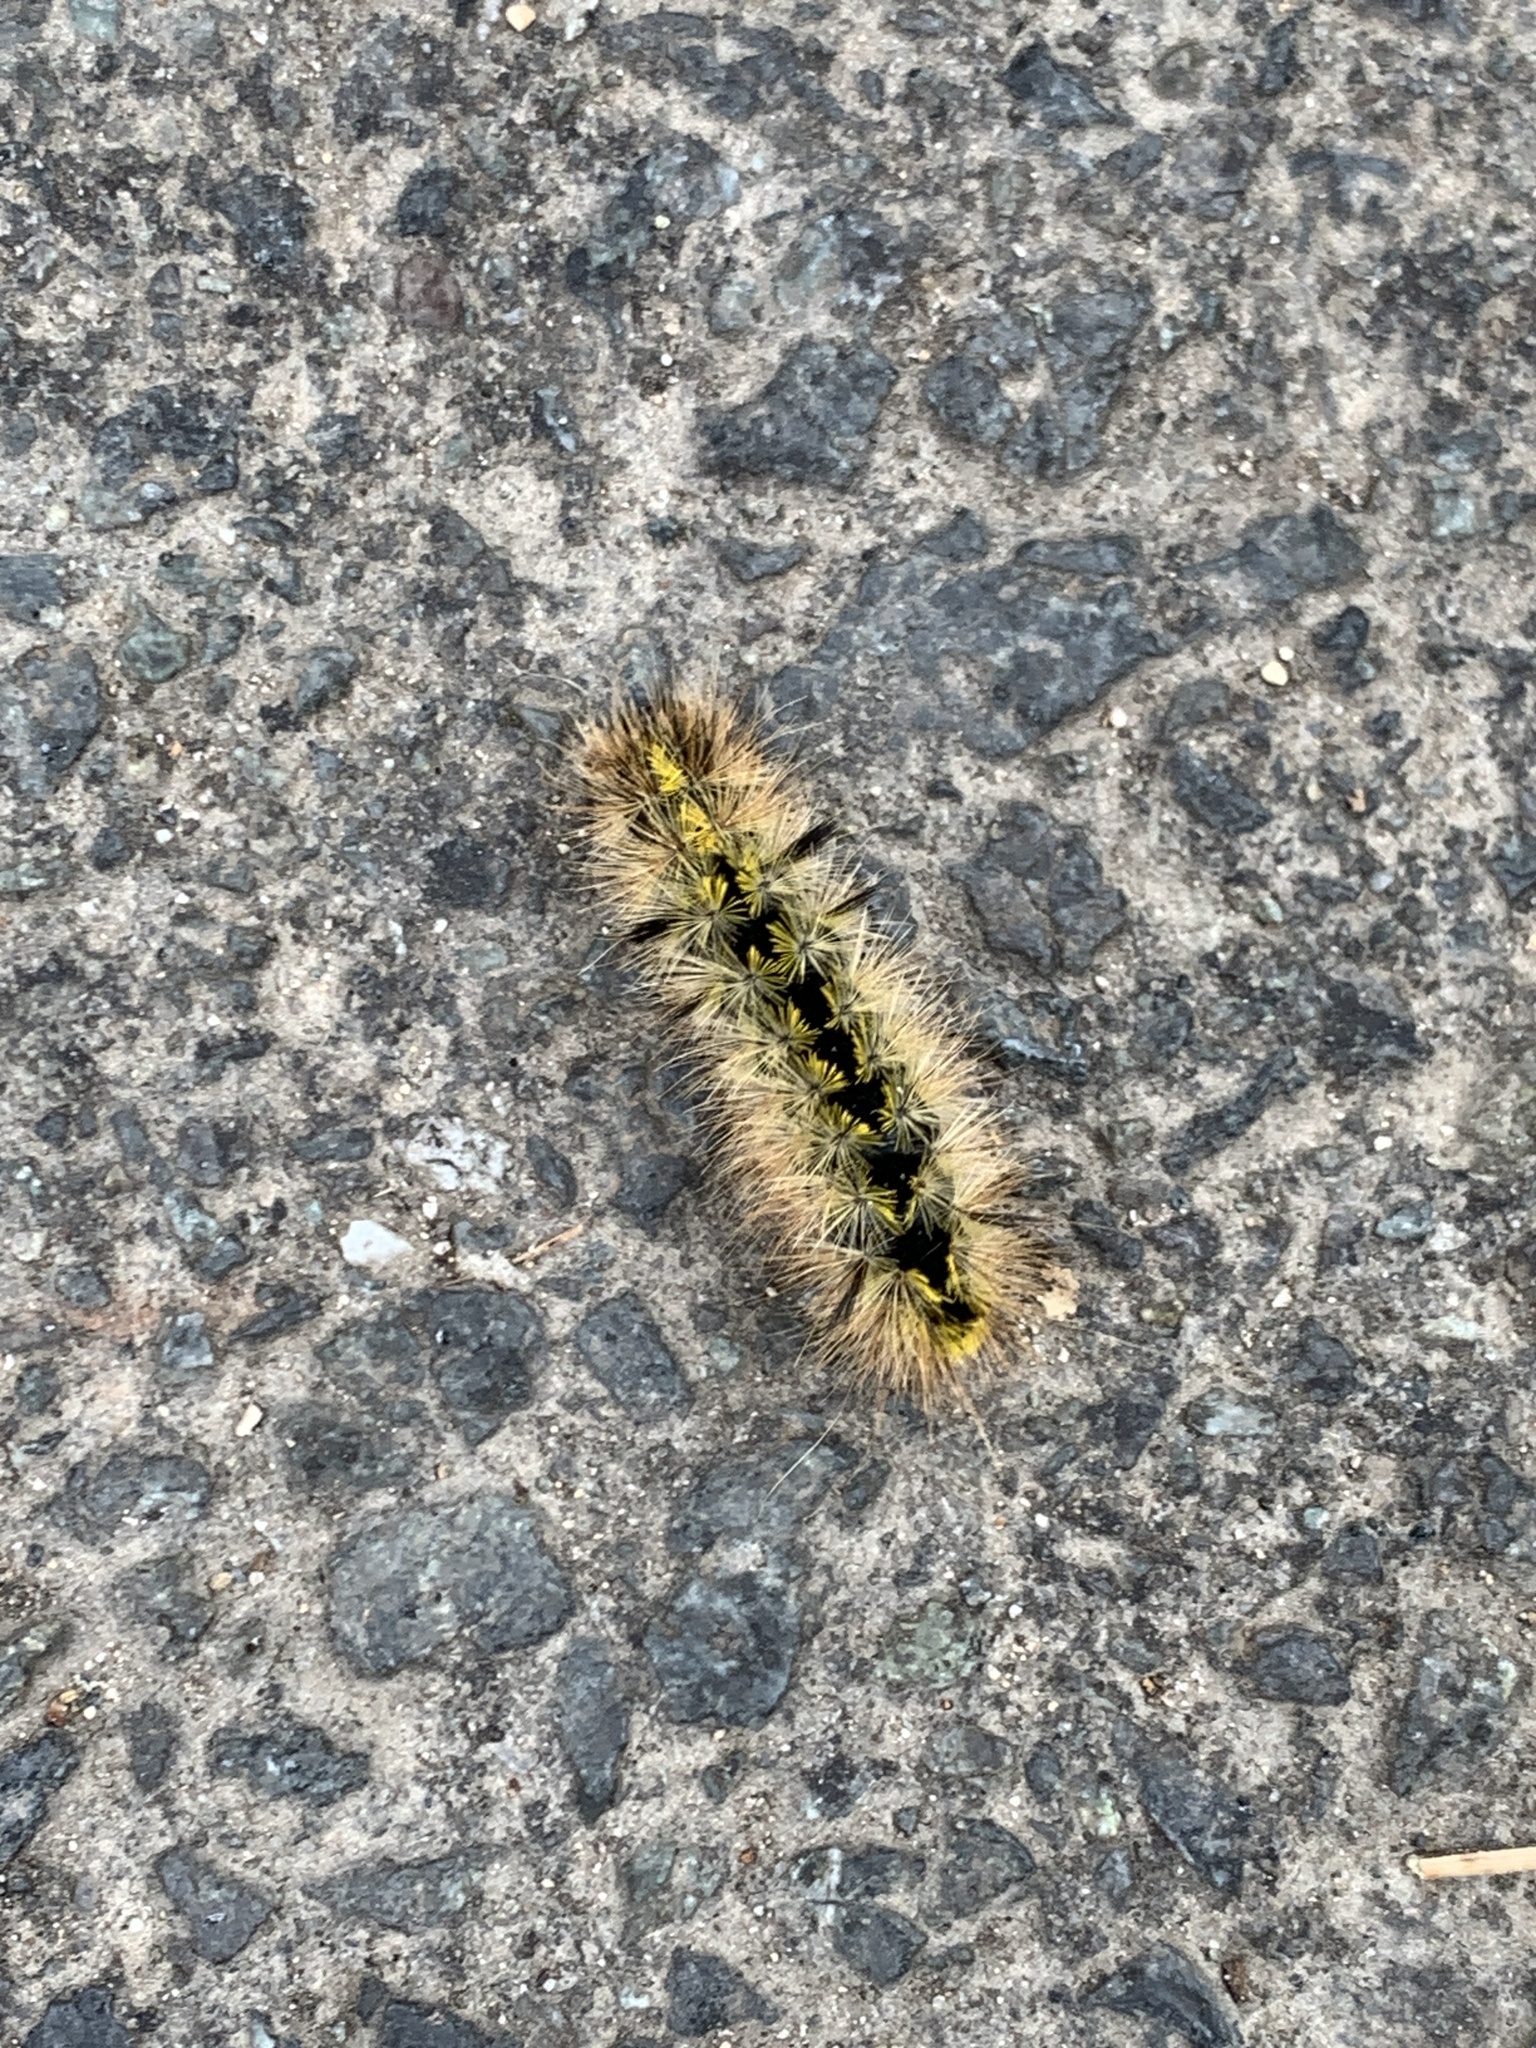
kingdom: Animalia
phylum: Arthropoda
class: Insecta
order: Lepidoptera
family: Erebidae
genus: Lophocampa
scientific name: Lophocampa argentata
